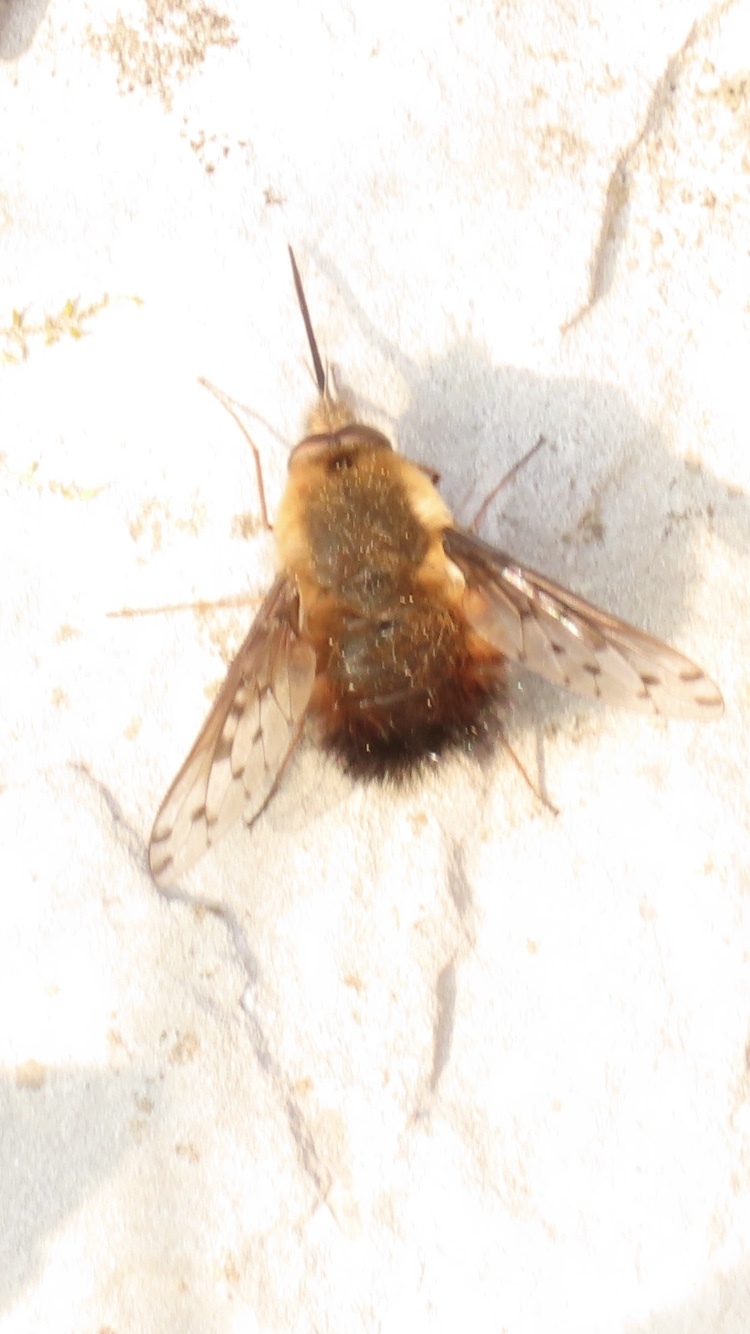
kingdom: Animalia
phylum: Arthropoda
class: Insecta
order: Diptera
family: Bombyliidae
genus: Bombylius
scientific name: Bombylius discolor
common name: Dotted bee-fly
